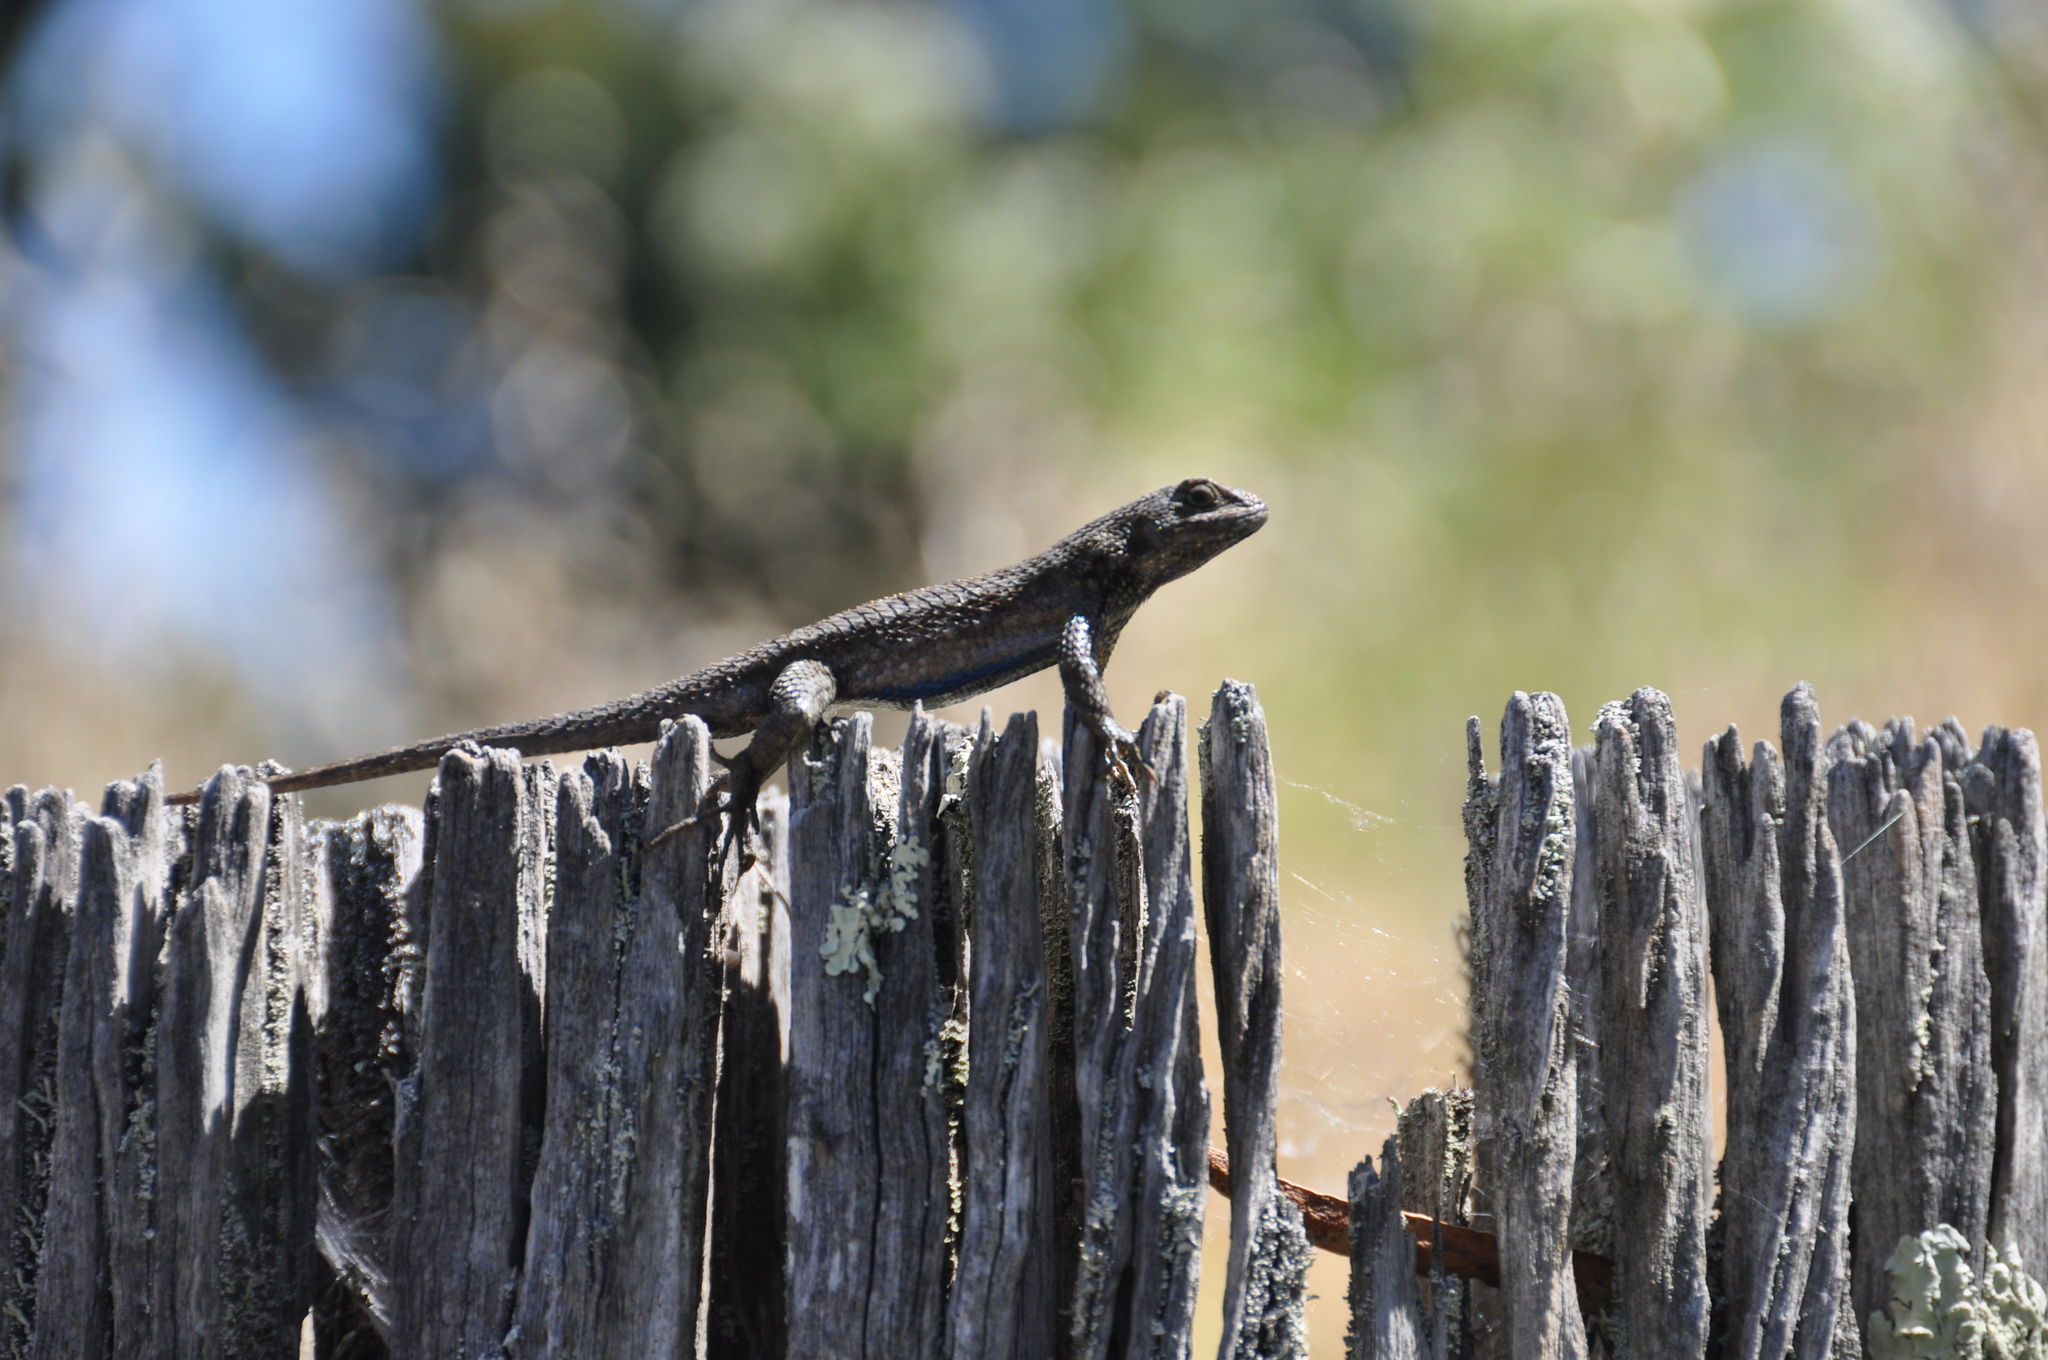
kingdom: Animalia
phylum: Chordata
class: Squamata
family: Phrynosomatidae
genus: Sceloporus
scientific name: Sceloporus occidentalis
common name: Western fence lizard
